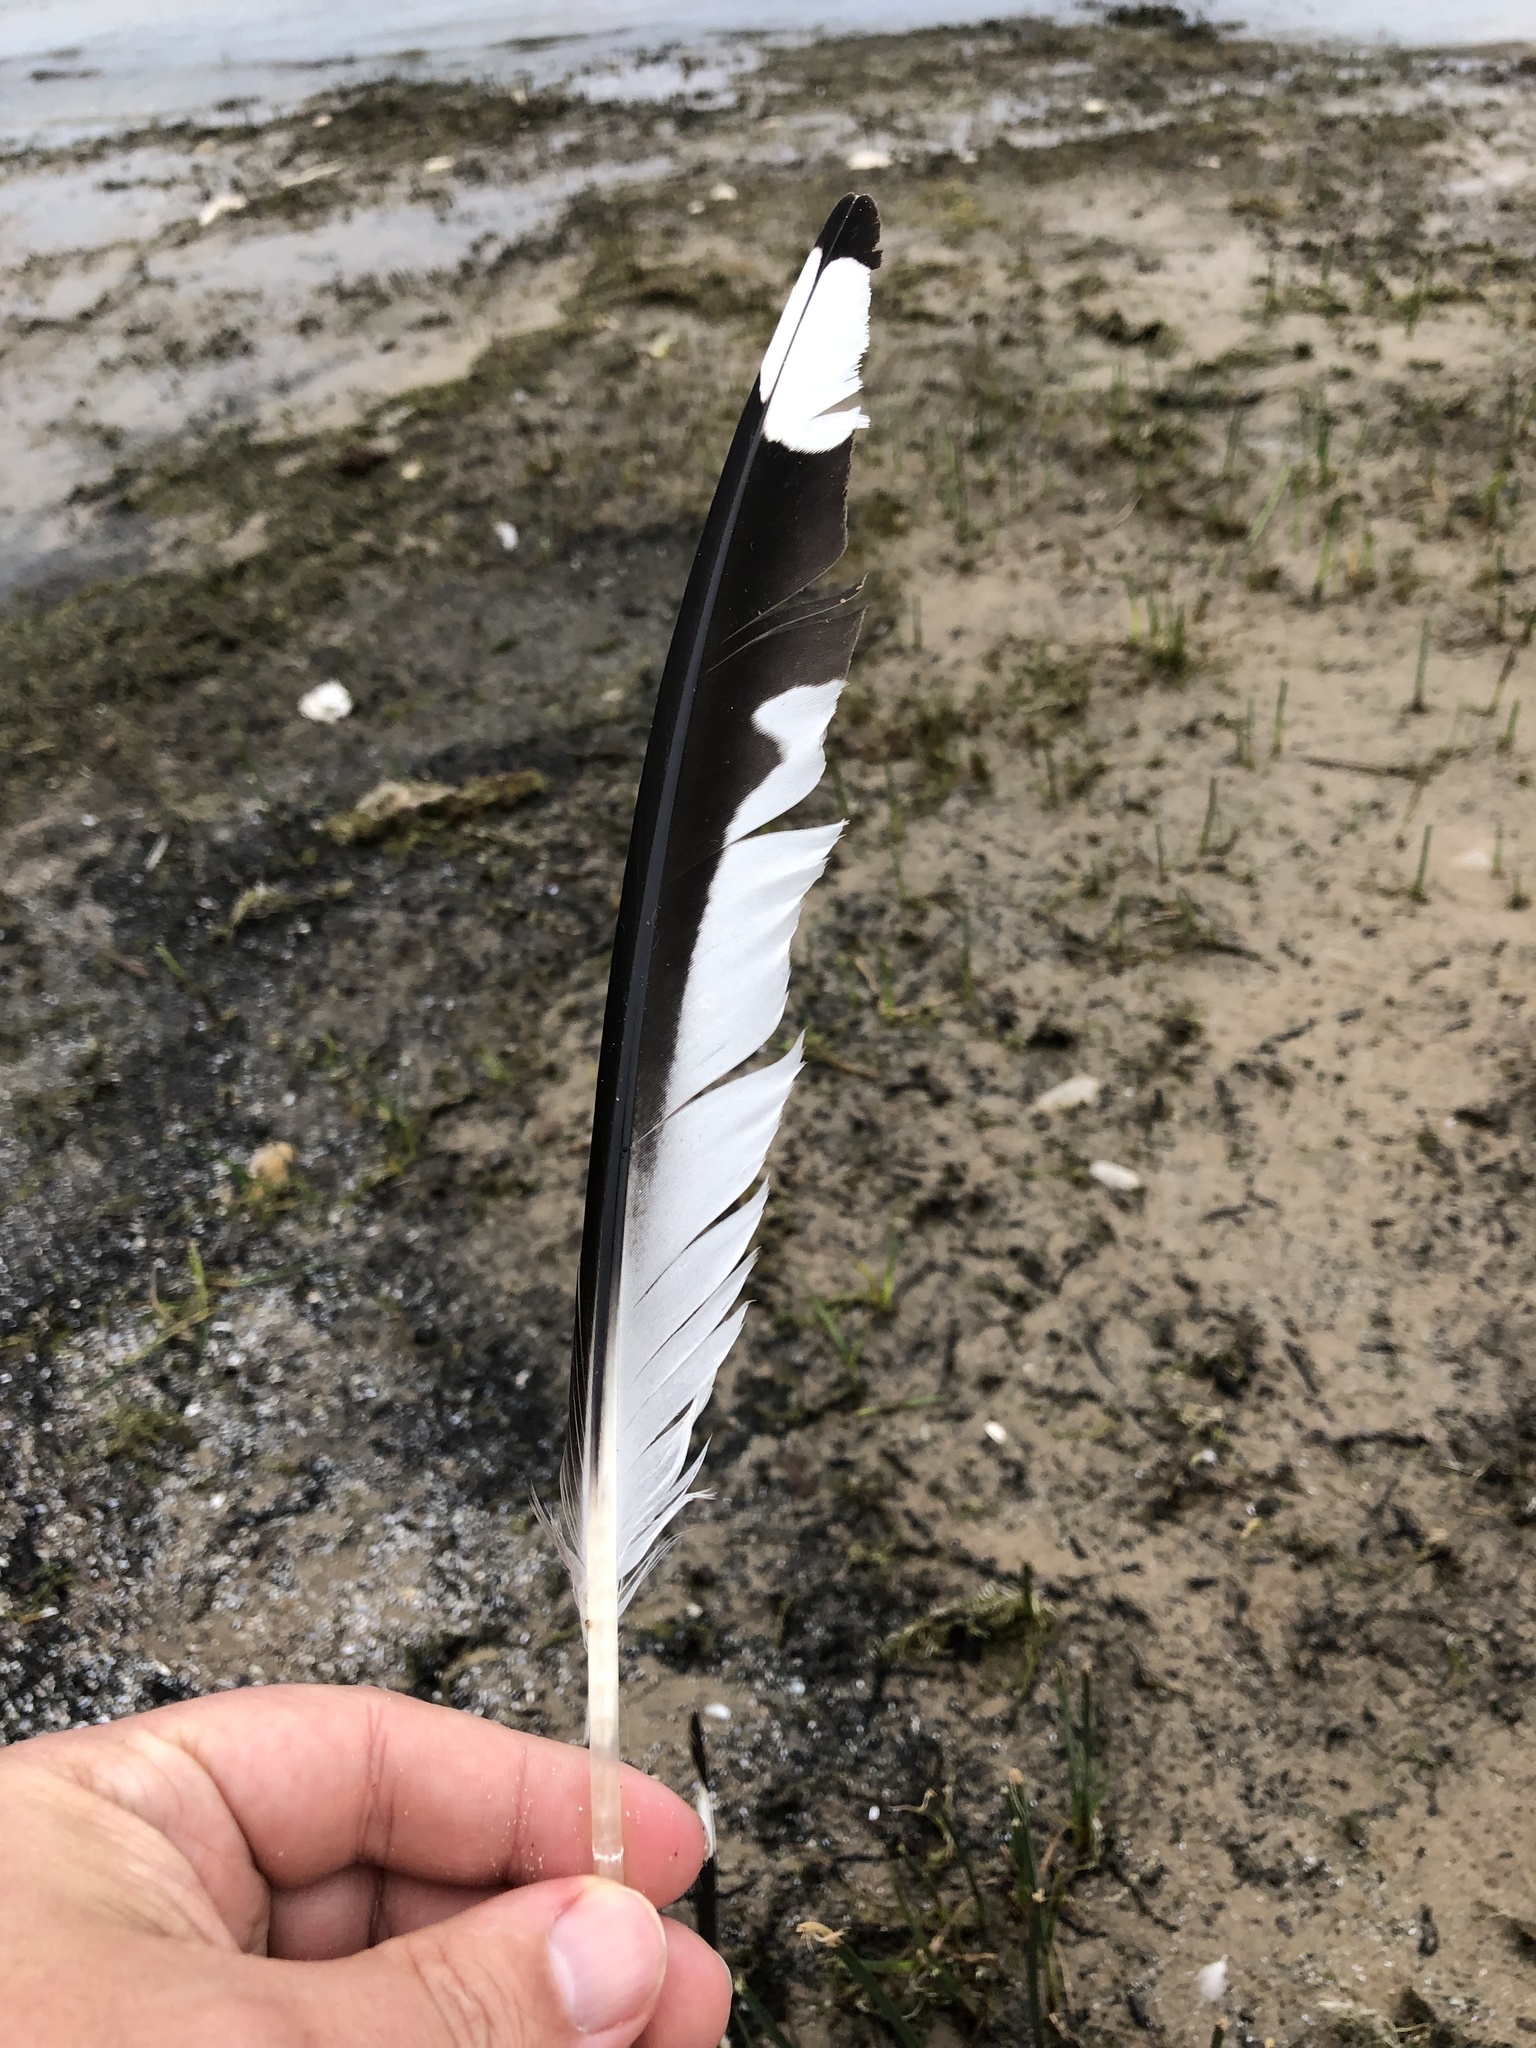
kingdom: Animalia
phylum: Chordata
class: Aves
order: Charadriiformes
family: Laridae
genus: Larus
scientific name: Larus delawarensis
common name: Ring-billed gull
